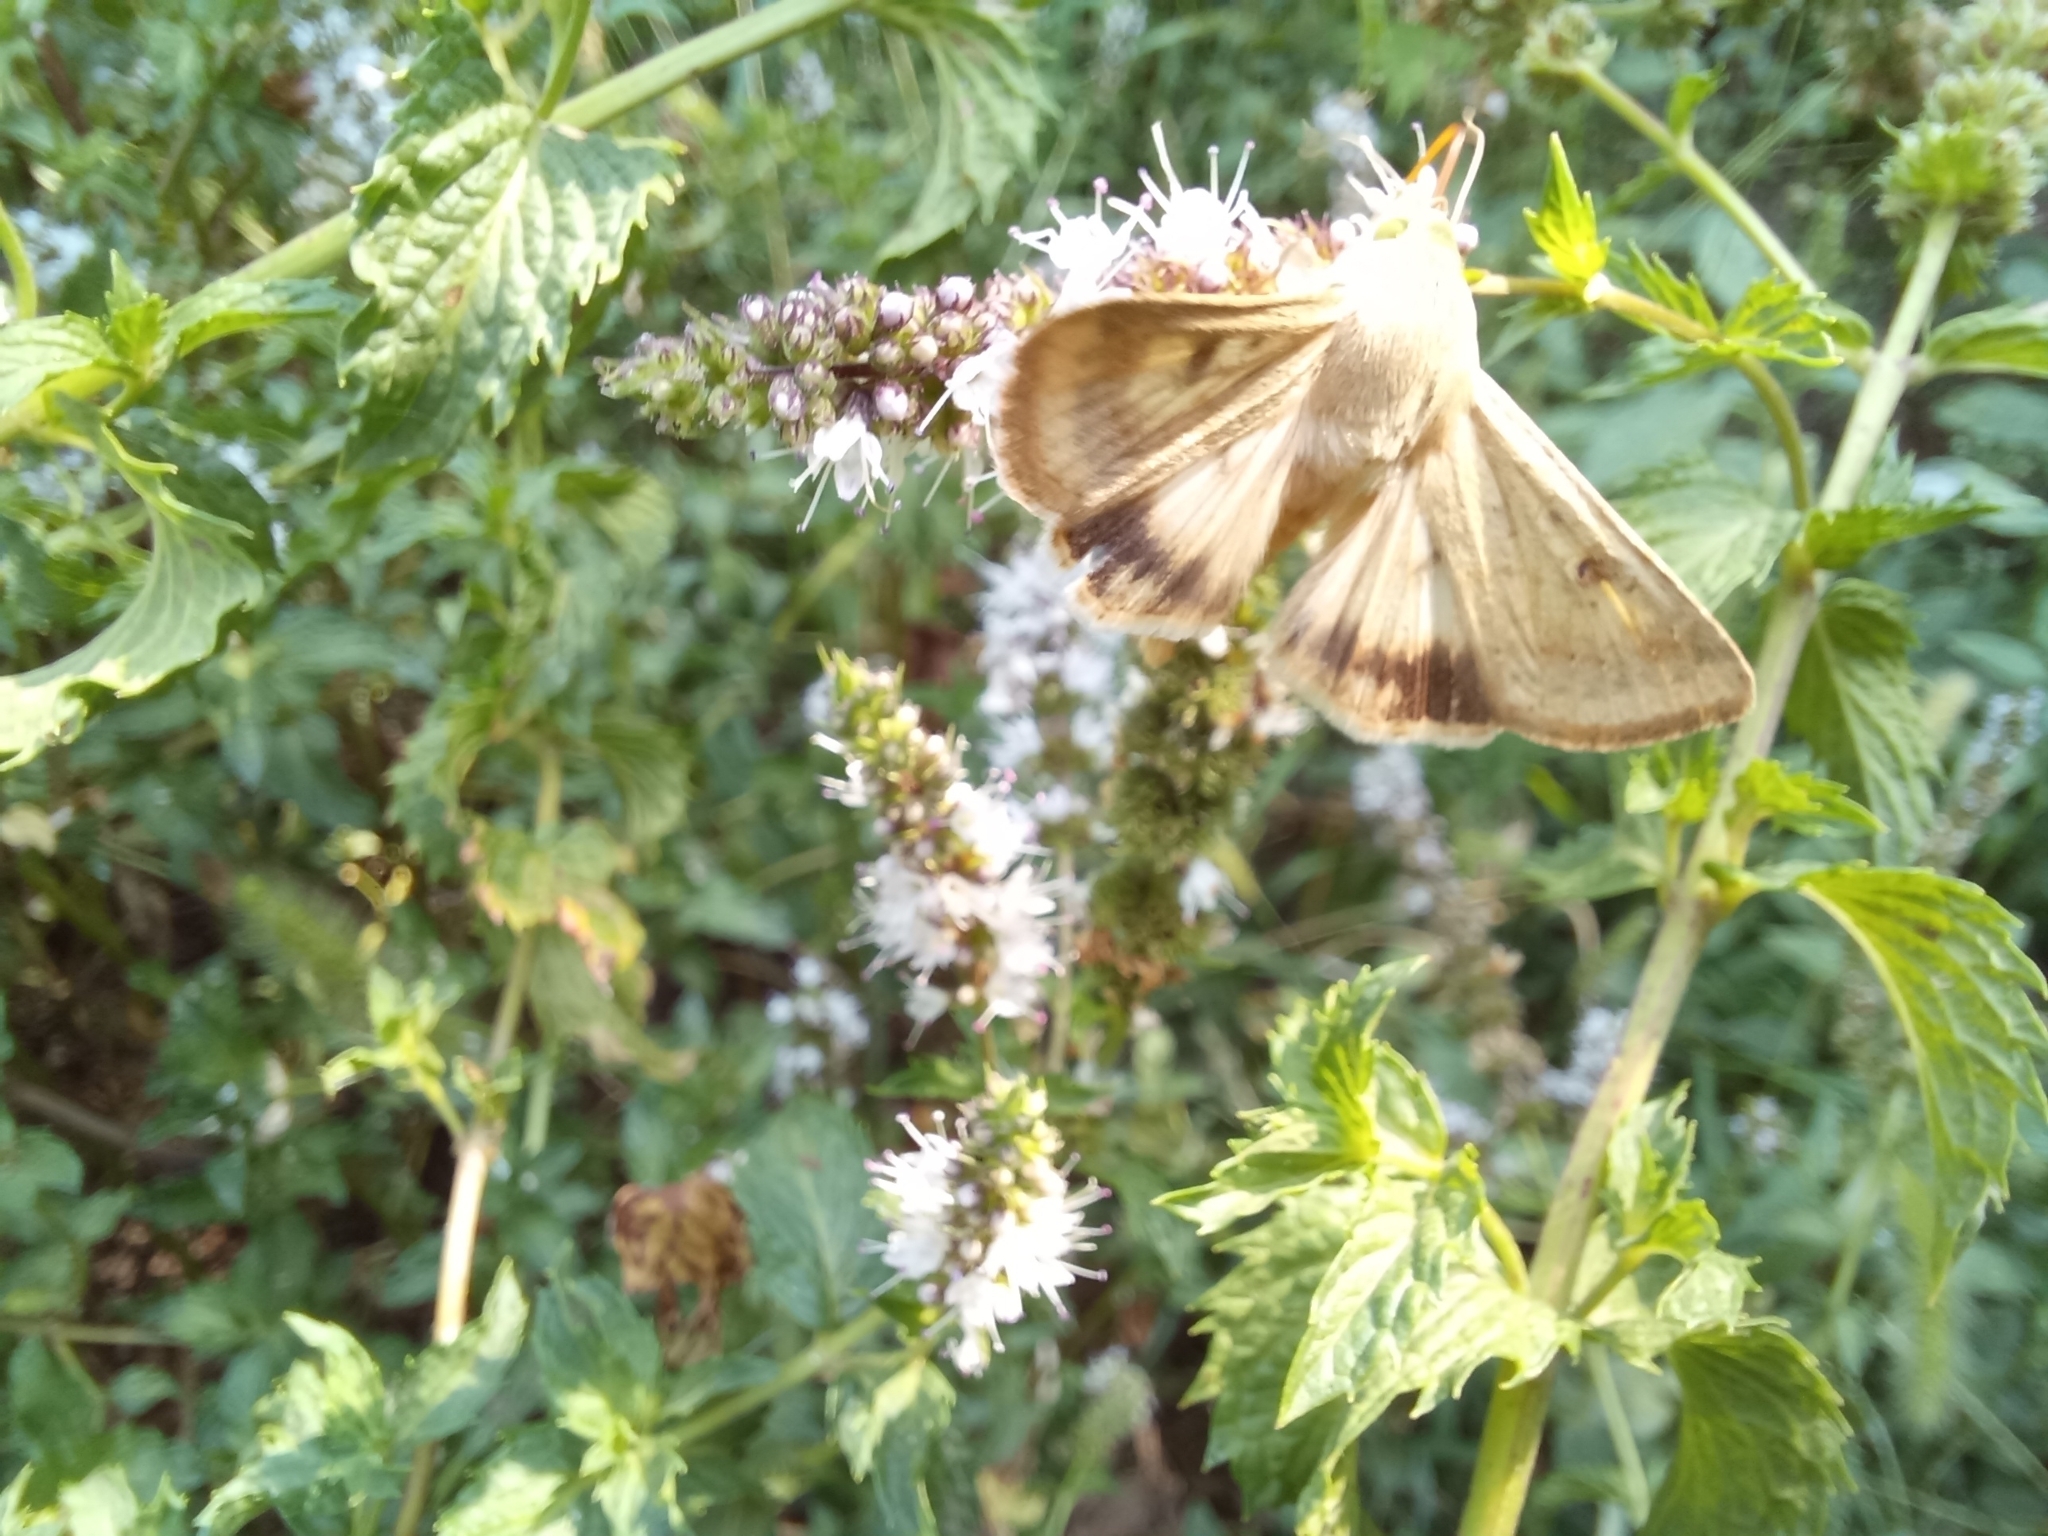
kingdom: Animalia
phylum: Arthropoda
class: Insecta
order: Lepidoptera
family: Noctuidae
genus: Helicoverpa
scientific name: Helicoverpa armigera
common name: Cotton bollworm
